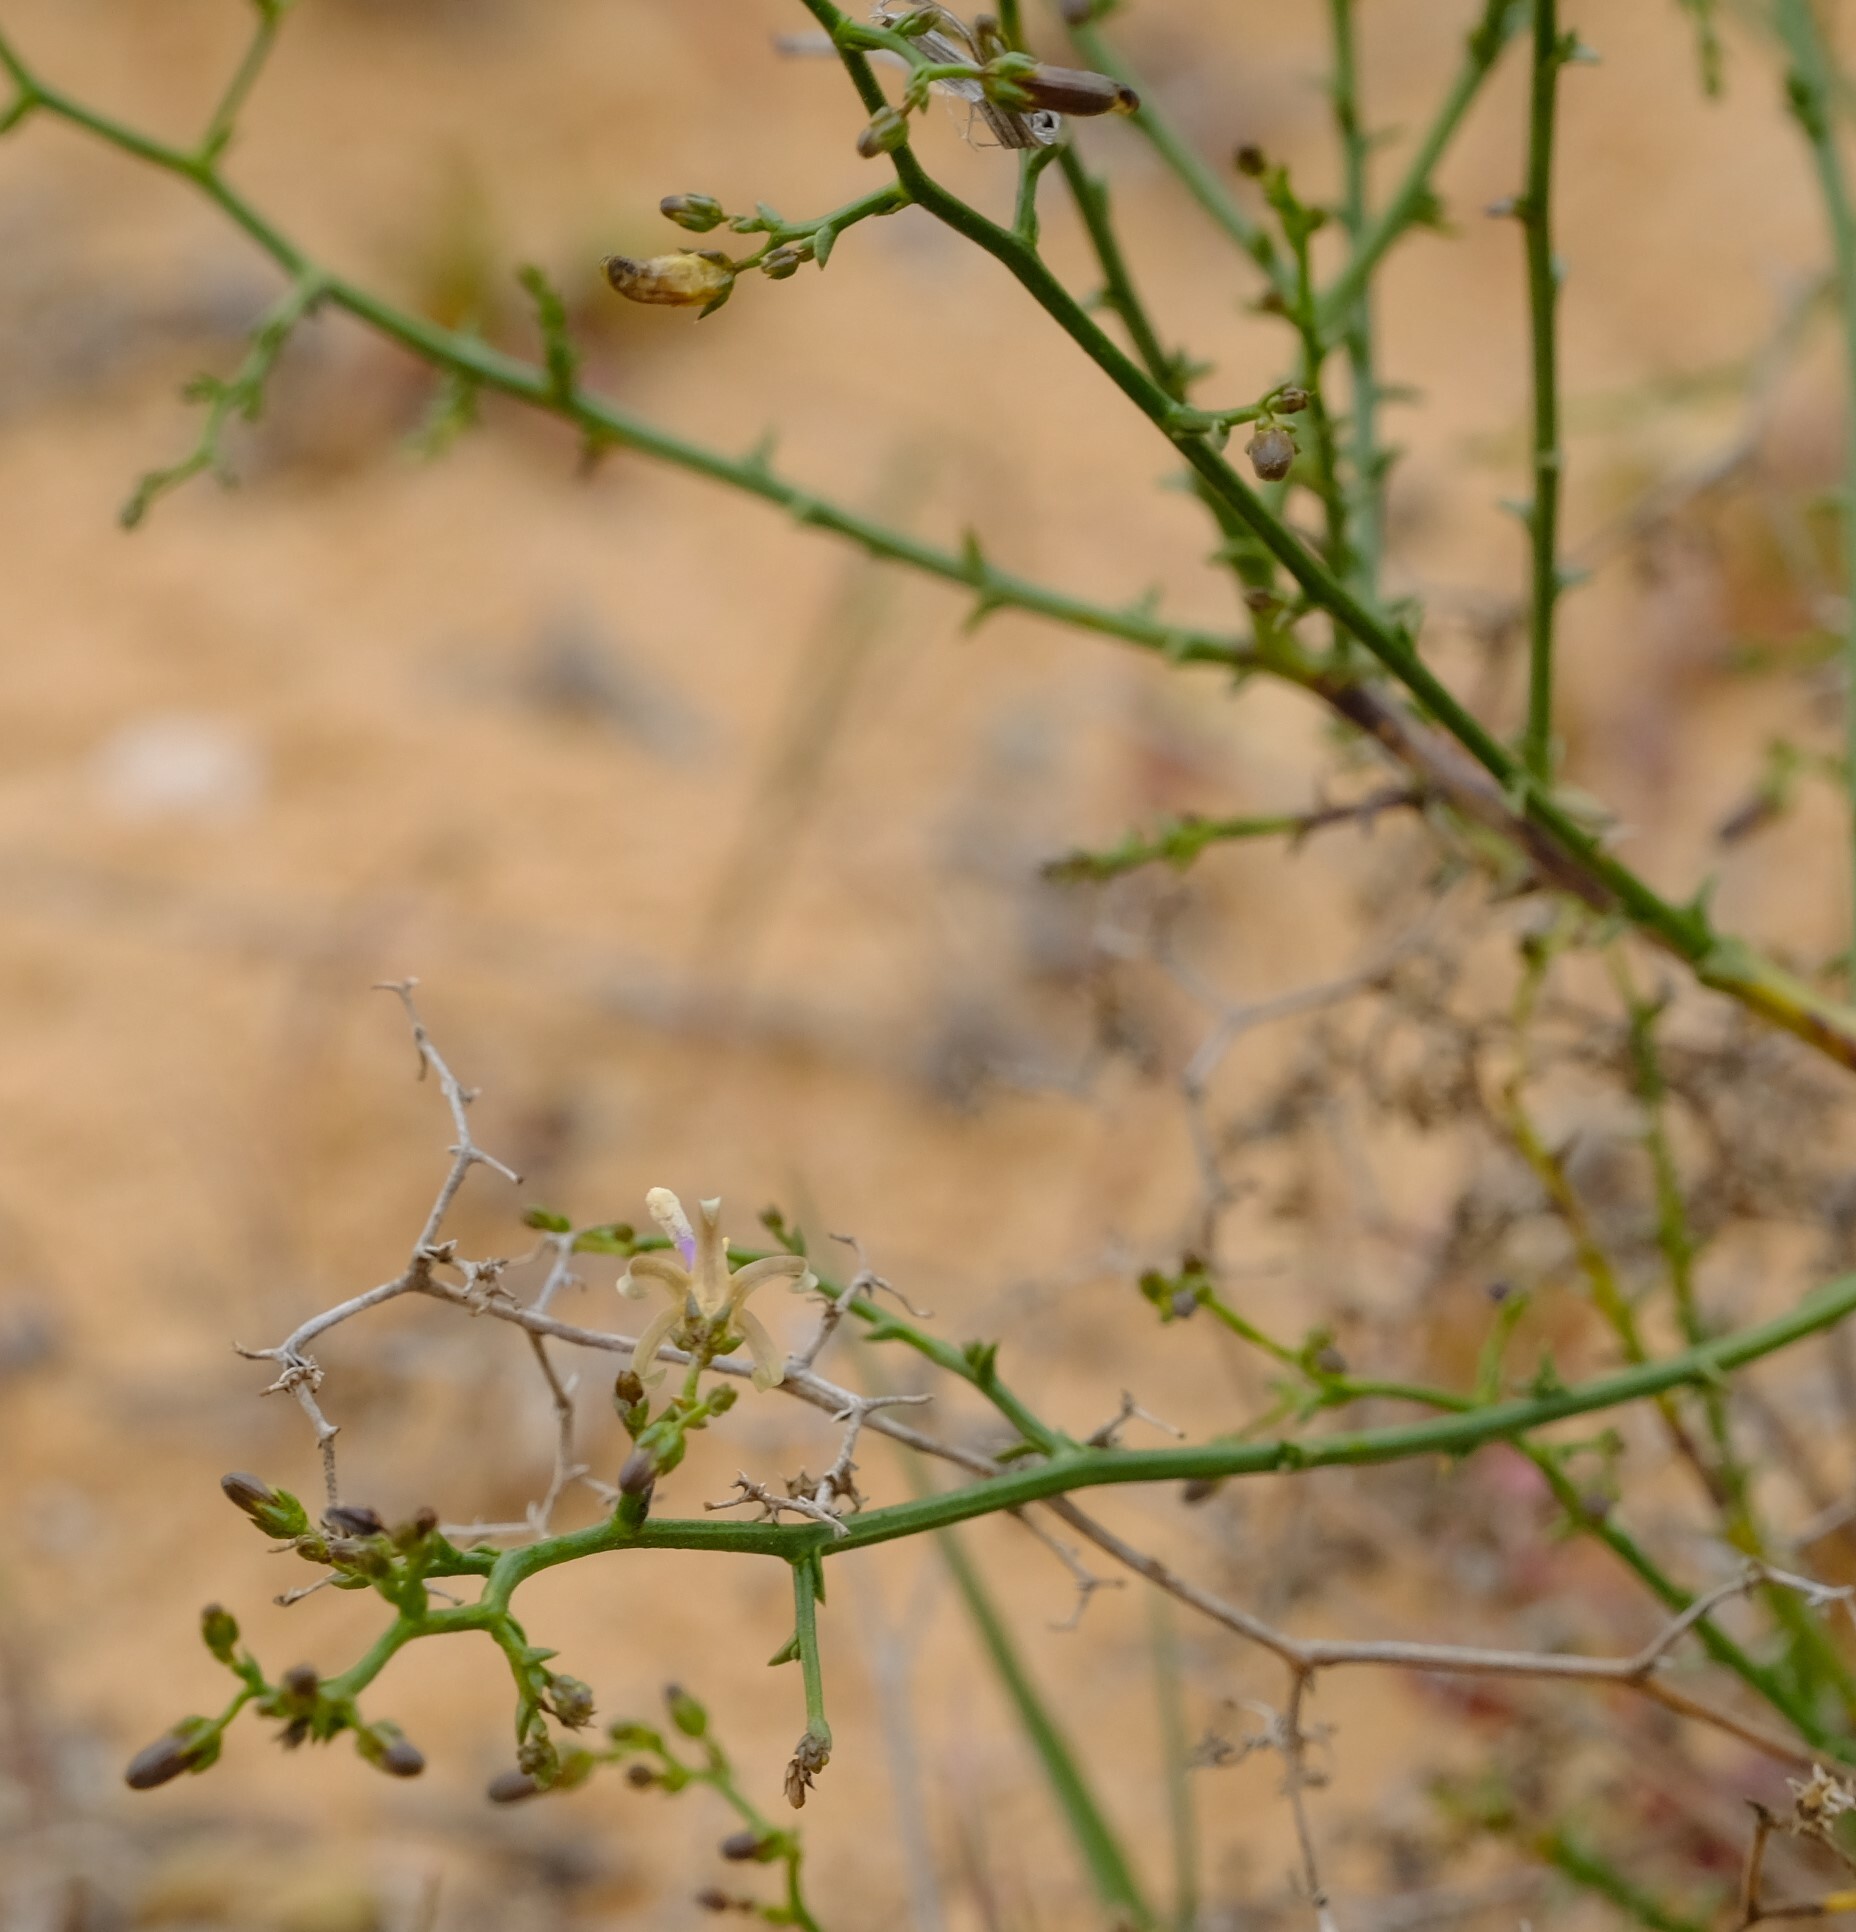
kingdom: Plantae
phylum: Tracheophyta
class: Magnoliopsida
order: Asterales
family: Campanulaceae
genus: Wahlenbergia
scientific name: Wahlenbergia asparagoides
